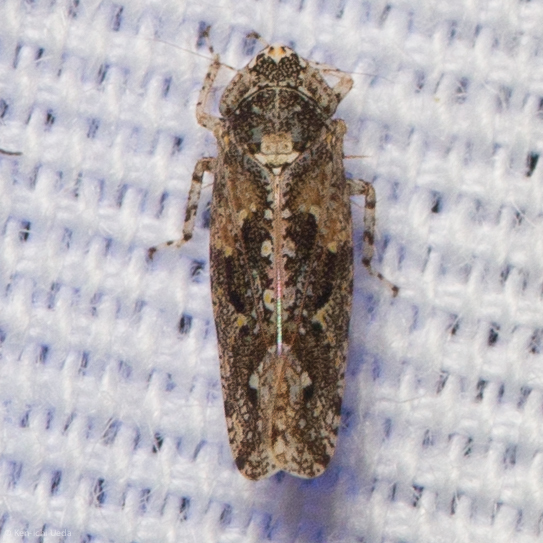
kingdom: Animalia
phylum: Arthropoda
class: Insecta
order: Hemiptera
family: Cicadellidae
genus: Dixianus
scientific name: Dixianus utahnus
